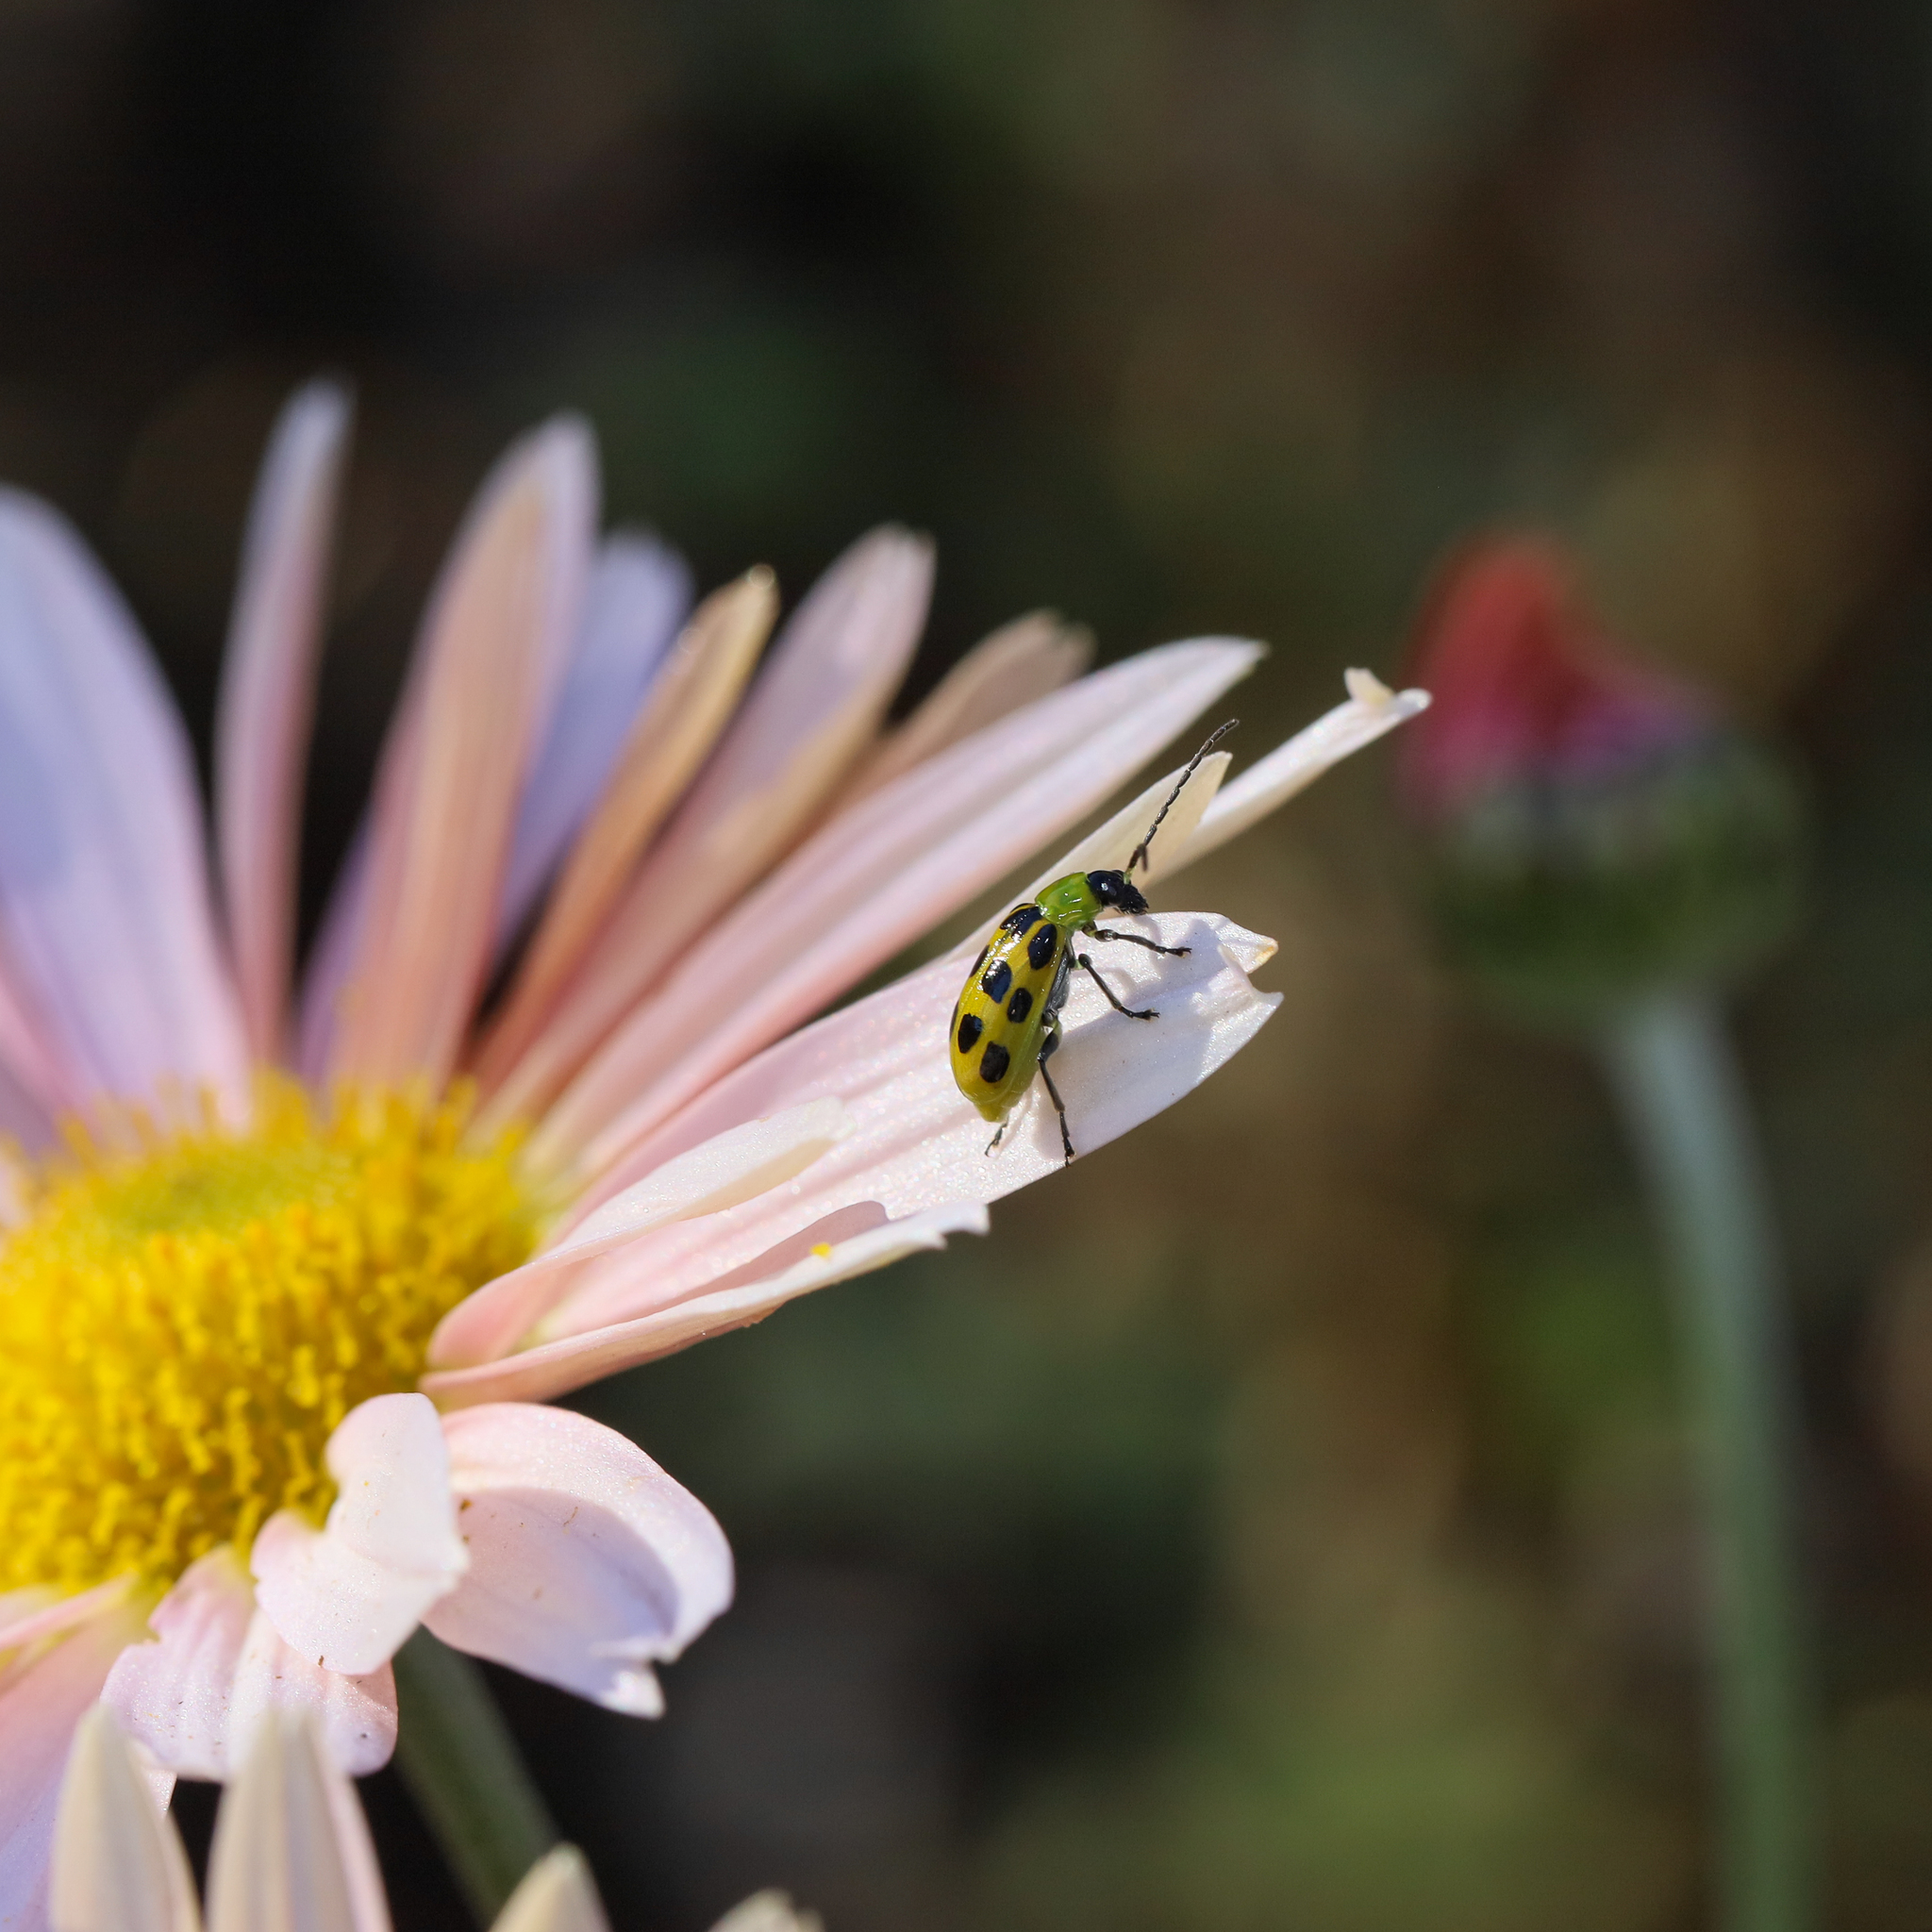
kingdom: Animalia
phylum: Arthropoda
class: Insecta
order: Coleoptera
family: Chrysomelidae
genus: Diabrotica
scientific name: Diabrotica undecimpunctata
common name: Spotted cucumber beetle
